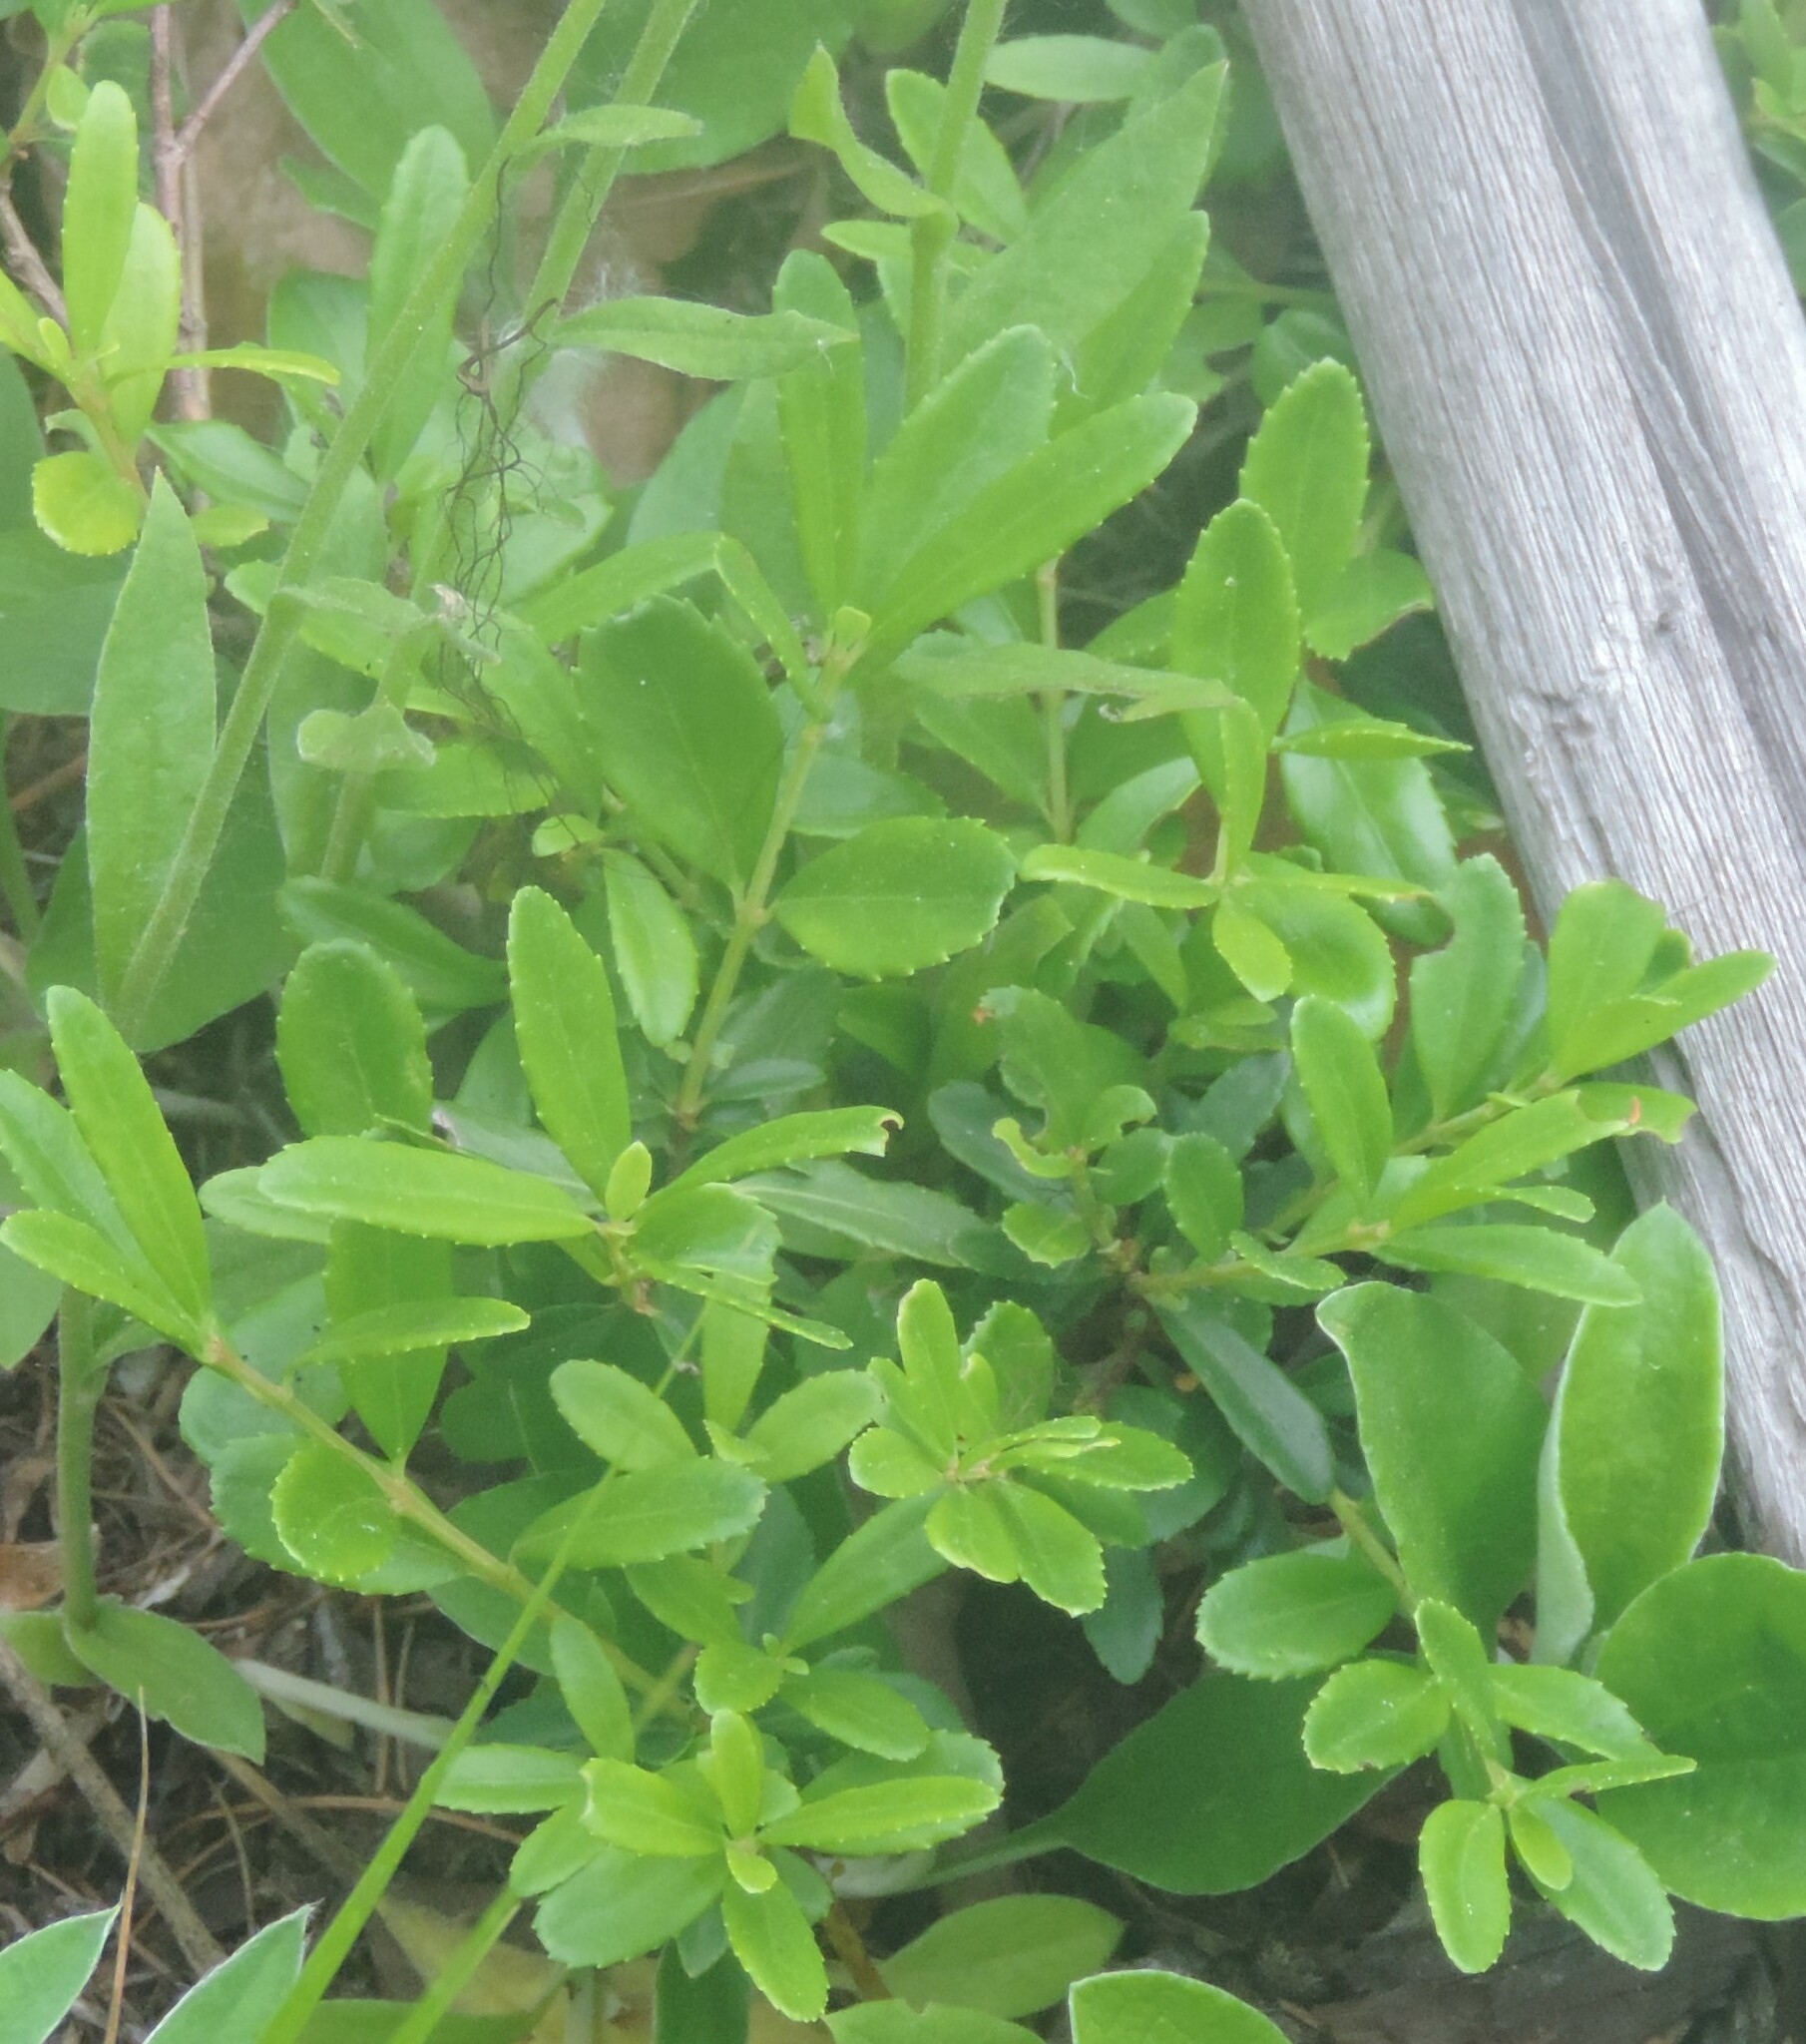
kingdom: Plantae
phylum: Tracheophyta
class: Magnoliopsida
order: Celastrales
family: Celastraceae
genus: Paxistima
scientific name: Paxistima myrsinites
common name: Mountain-lover
